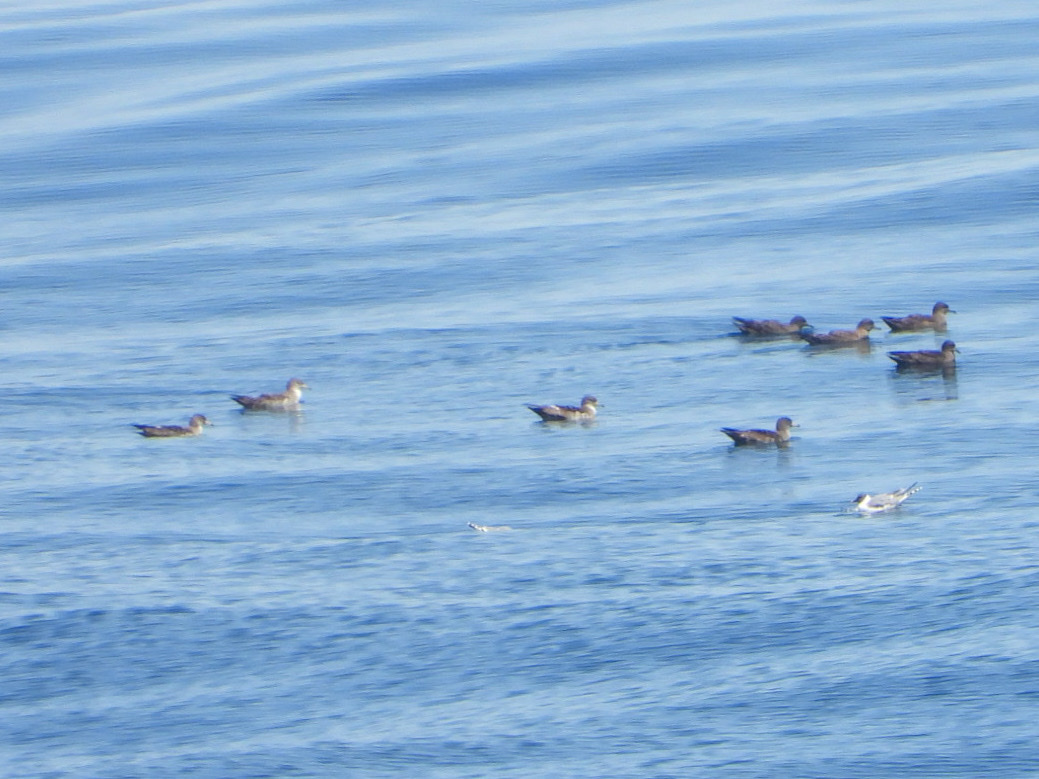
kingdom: Animalia
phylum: Chordata
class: Aves
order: Procellariiformes
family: Procellariidae
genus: Puffinus
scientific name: Puffinus creatopus
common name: Pink-footed shearwater
